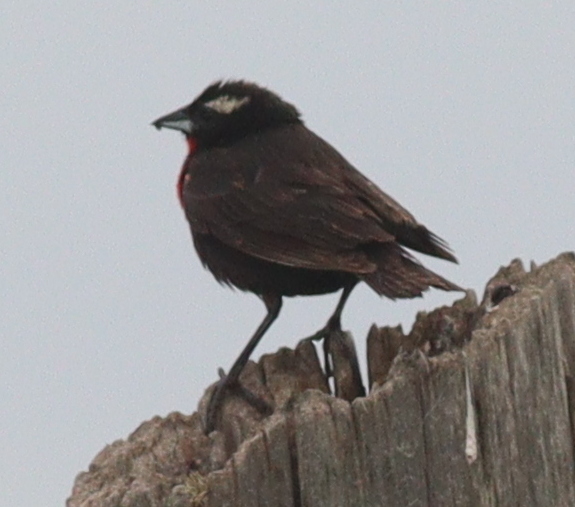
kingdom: Animalia
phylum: Chordata
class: Aves
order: Passeriformes
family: Icteridae
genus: Sturnella
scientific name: Sturnella superciliaris
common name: White-browed blackbird
